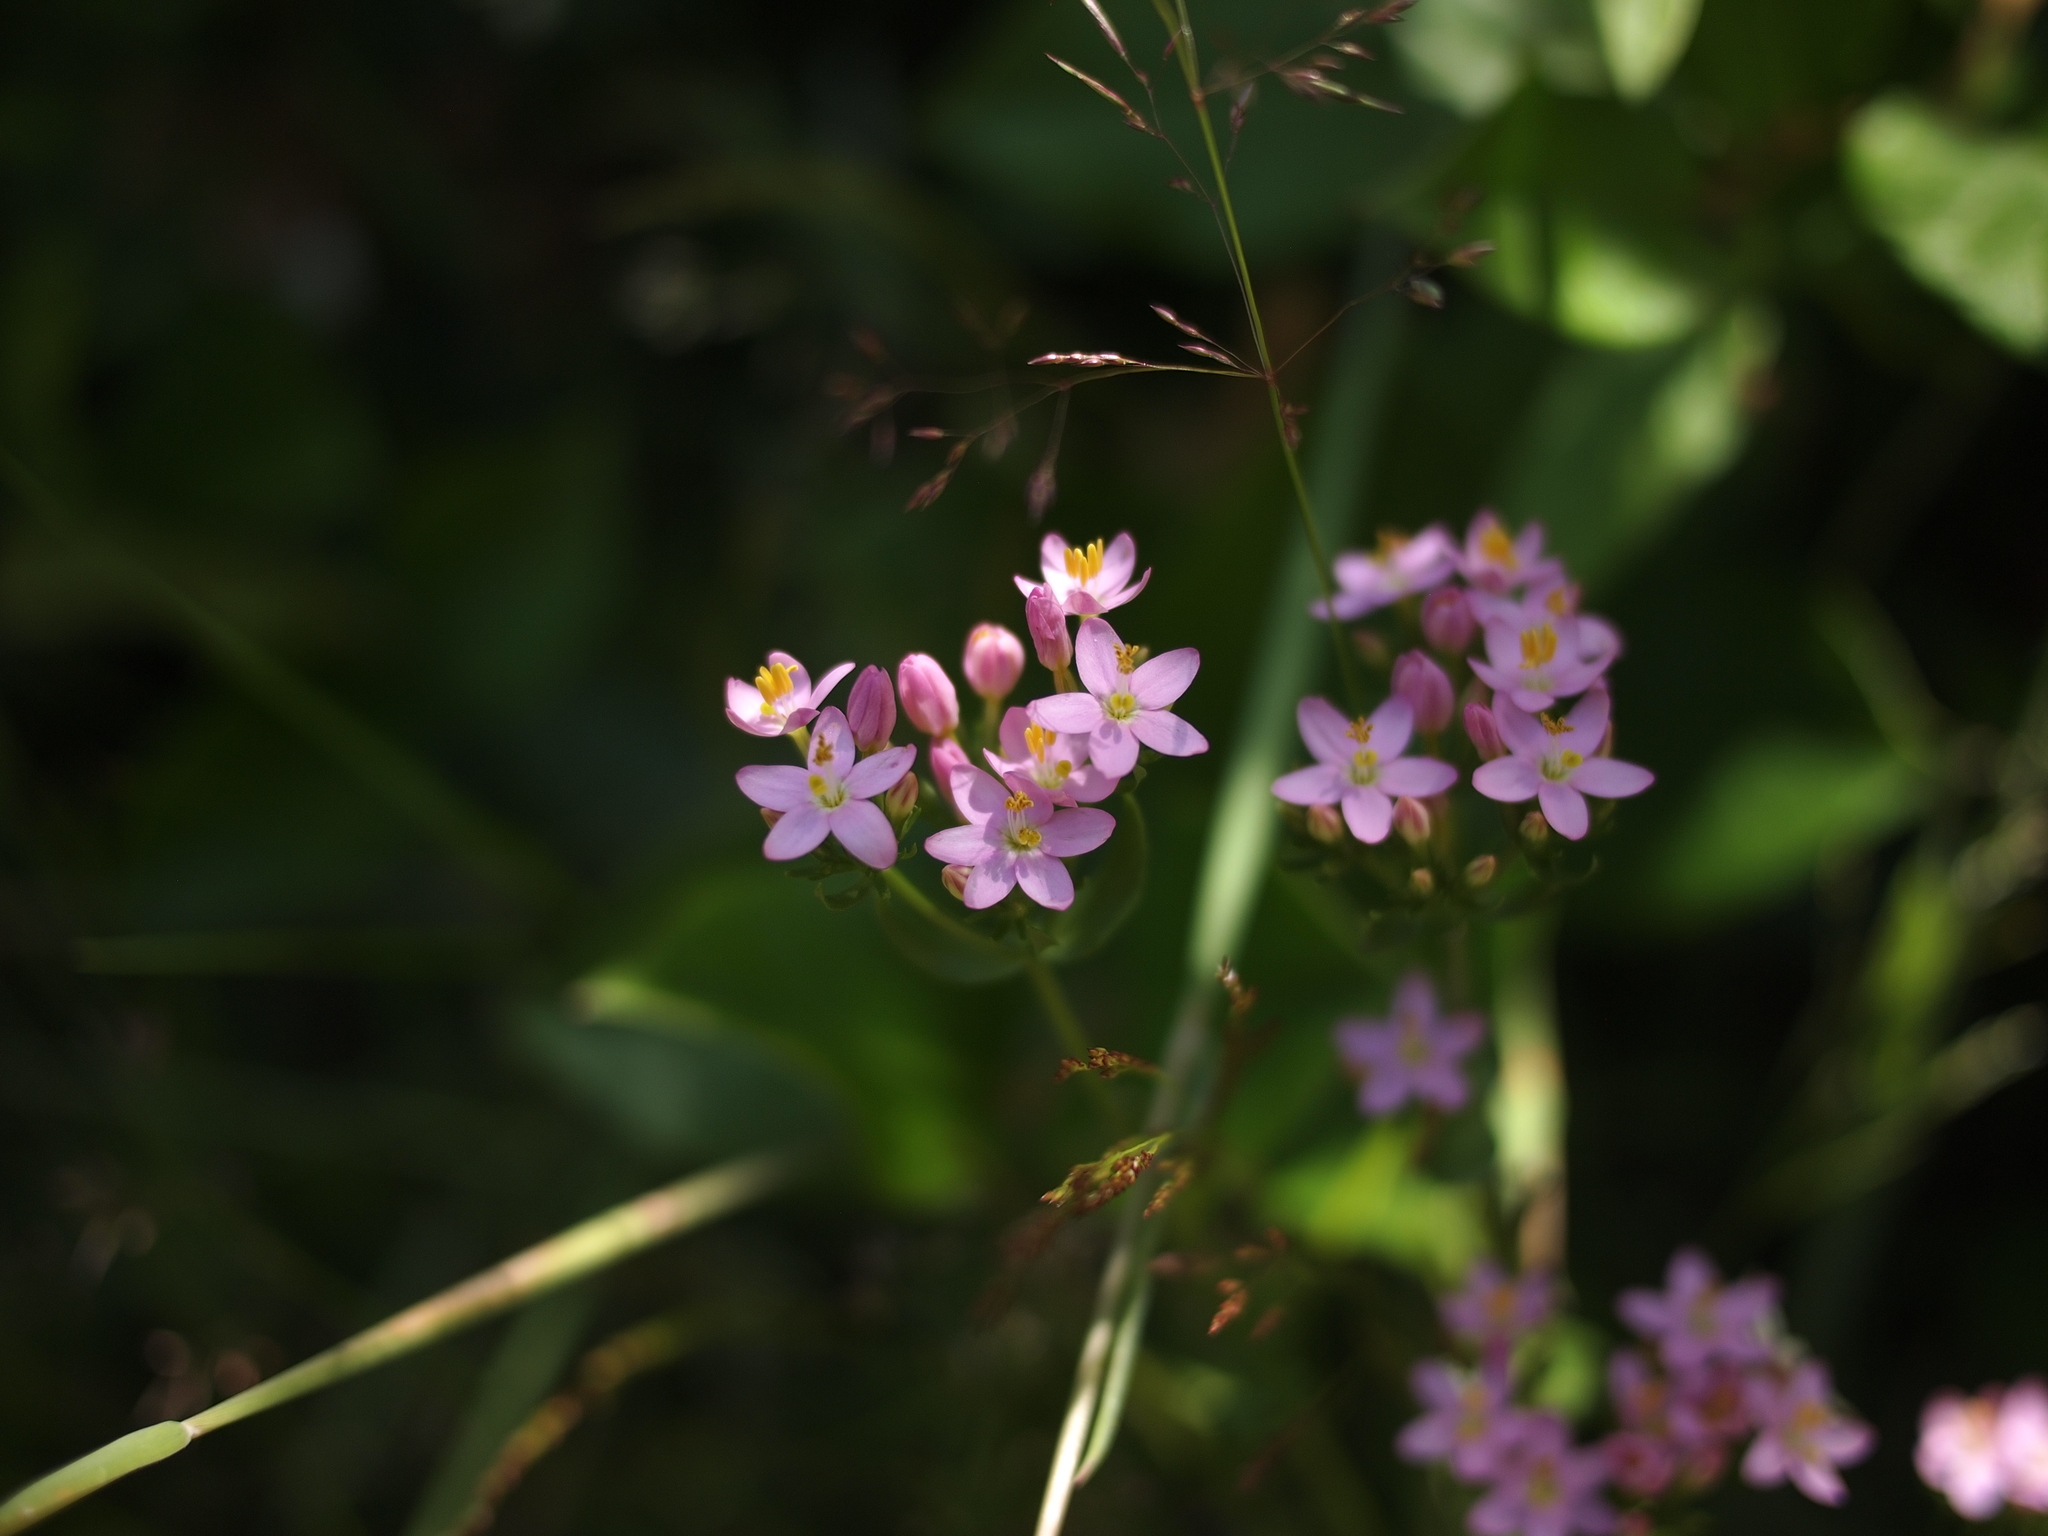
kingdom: Plantae
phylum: Tracheophyta
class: Magnoliopsida
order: Gentianales
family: Gentianaceae
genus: Centaurium
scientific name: Centaurium erythraea
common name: Common centaury
